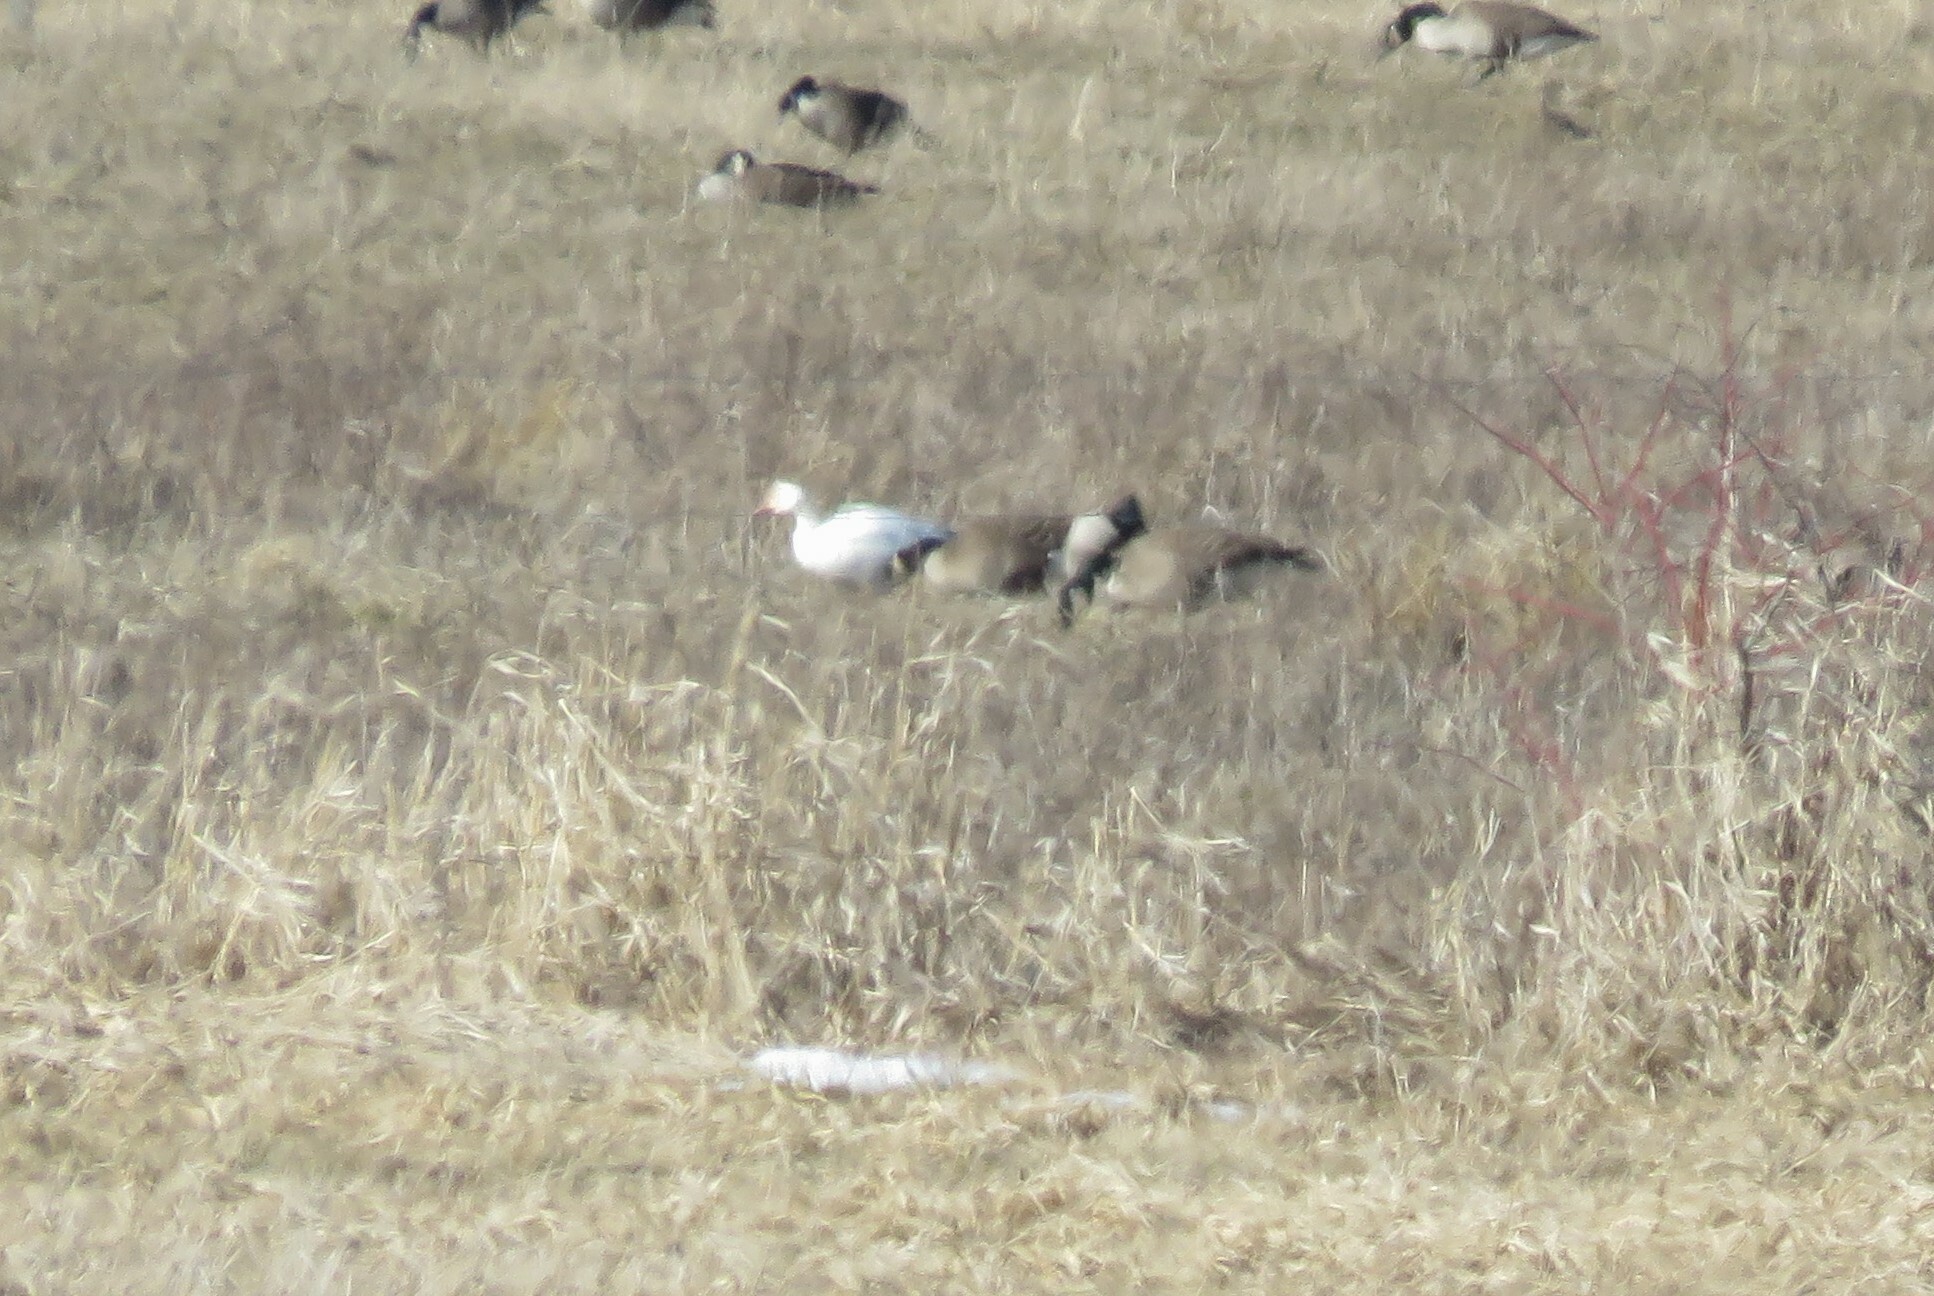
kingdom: Animalia
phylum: Chordata
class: Aves
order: Anseriformes
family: Anatidae
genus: Anser
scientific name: Anser caerulescens
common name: Snow goose
